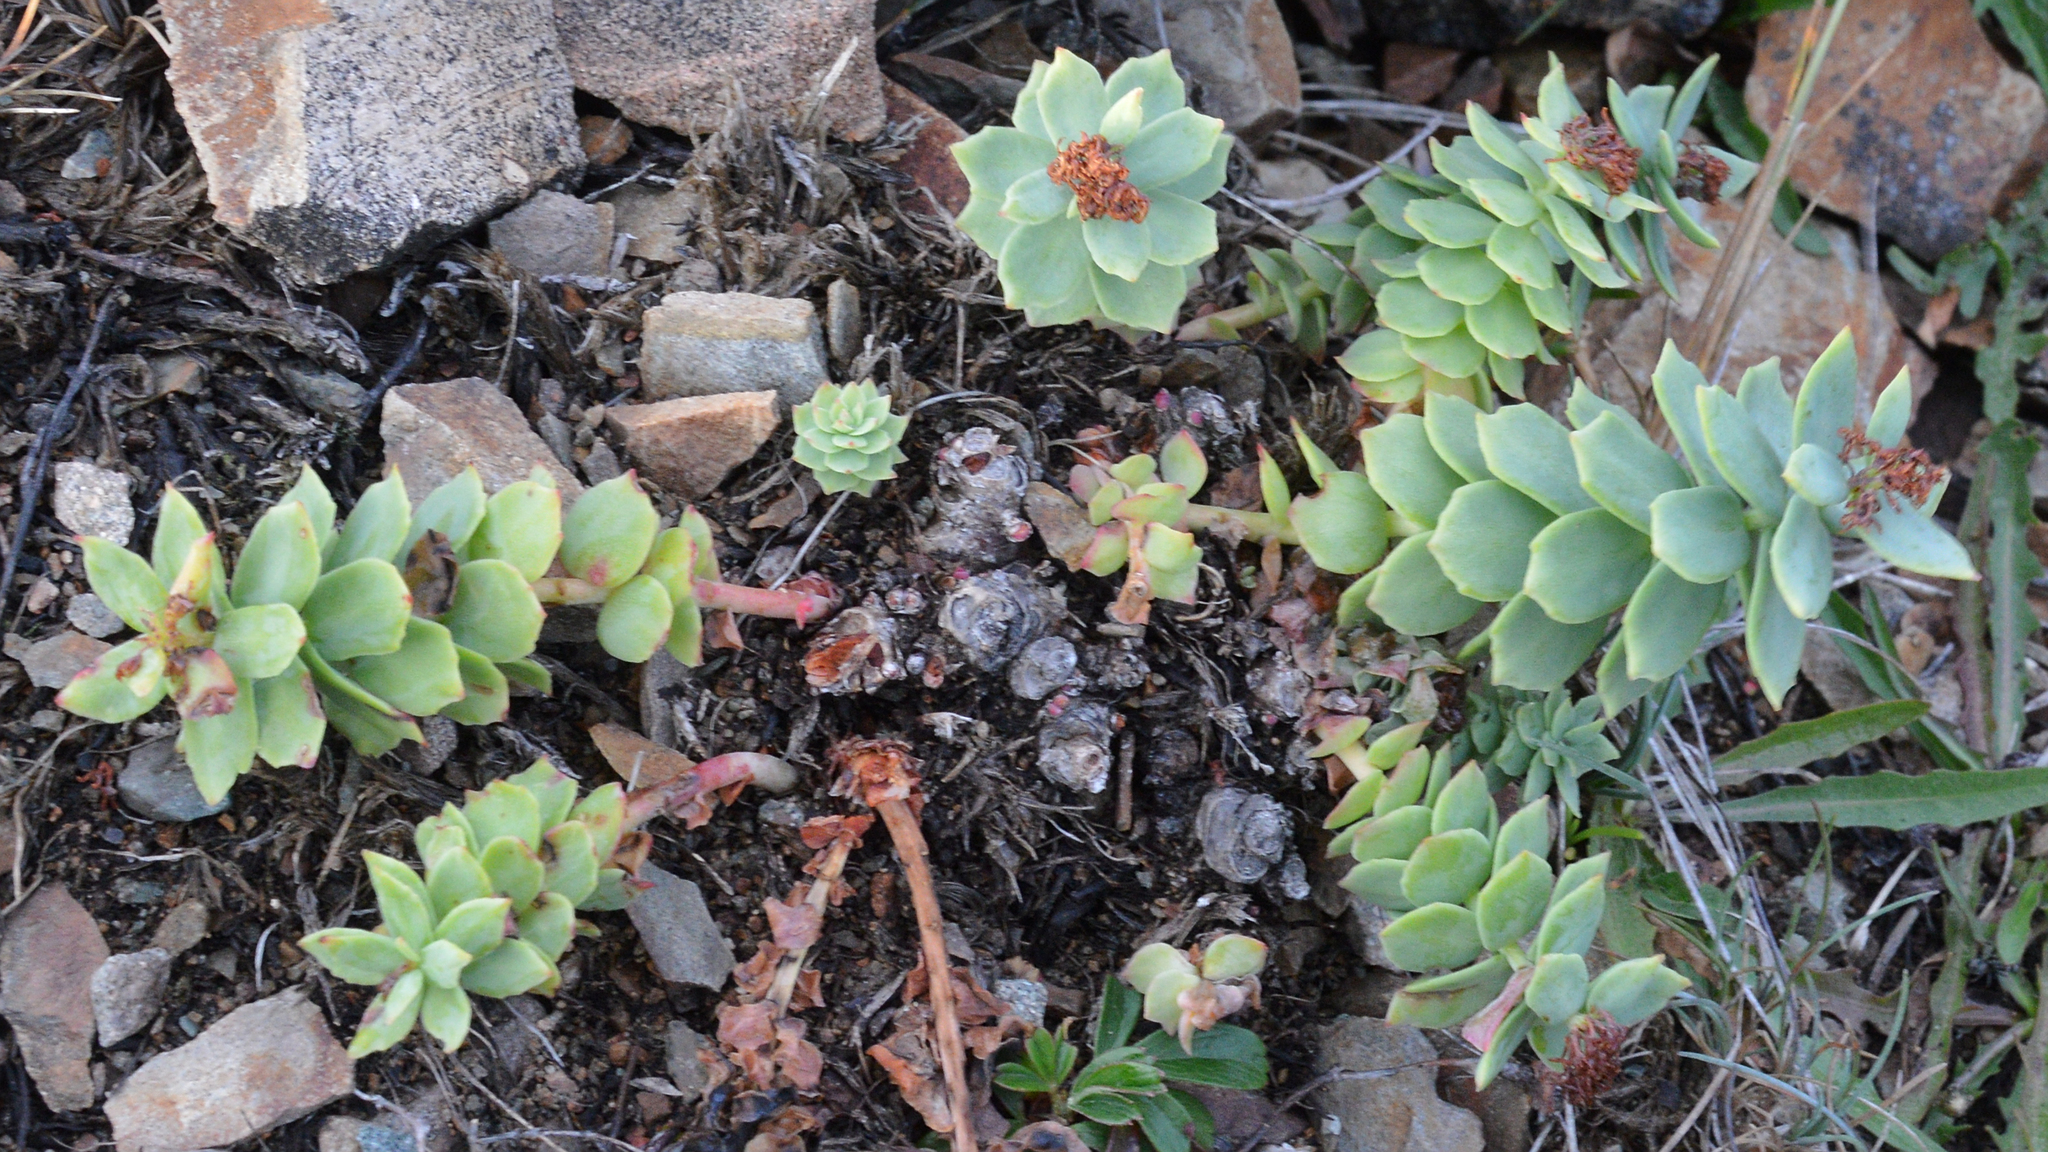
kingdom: Plantae
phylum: Tracheophyta
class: Magnoliopsida
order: Saxifragales
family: Crassulaceae
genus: Rhodiola
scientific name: Rhodiola rosea
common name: Roseroot
